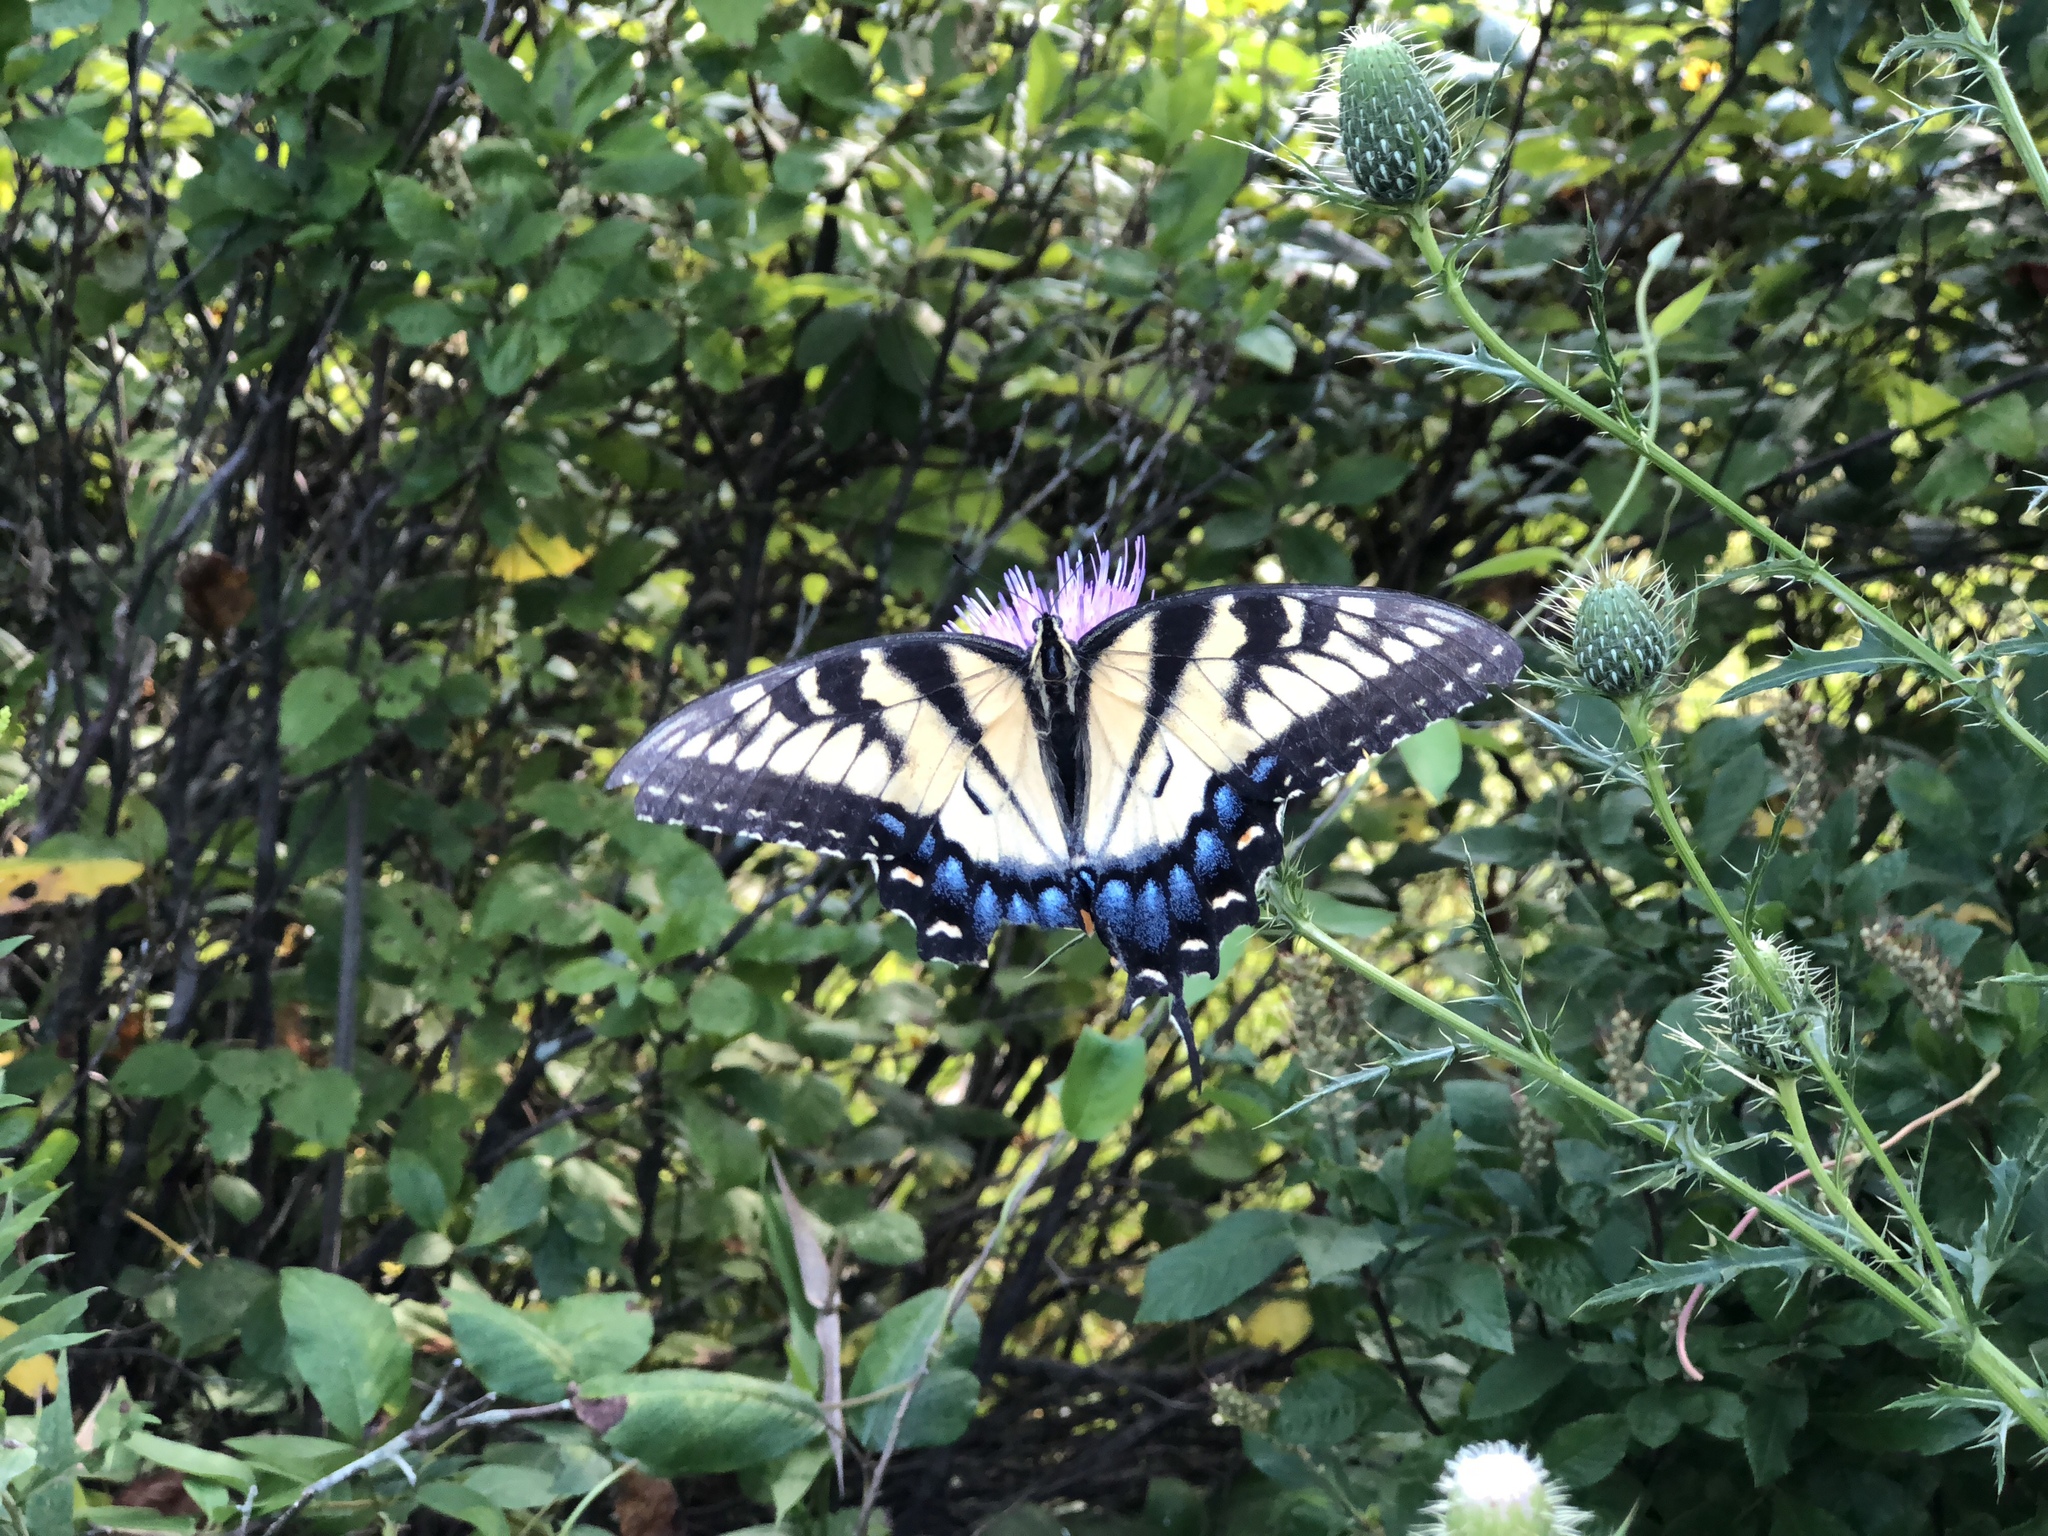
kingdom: Animalia
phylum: Arthropoda
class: Insecta
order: Lepidoptera
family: Papilionidae
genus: Papilio
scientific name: Papilio glaucus
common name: Tiger swallowtail
